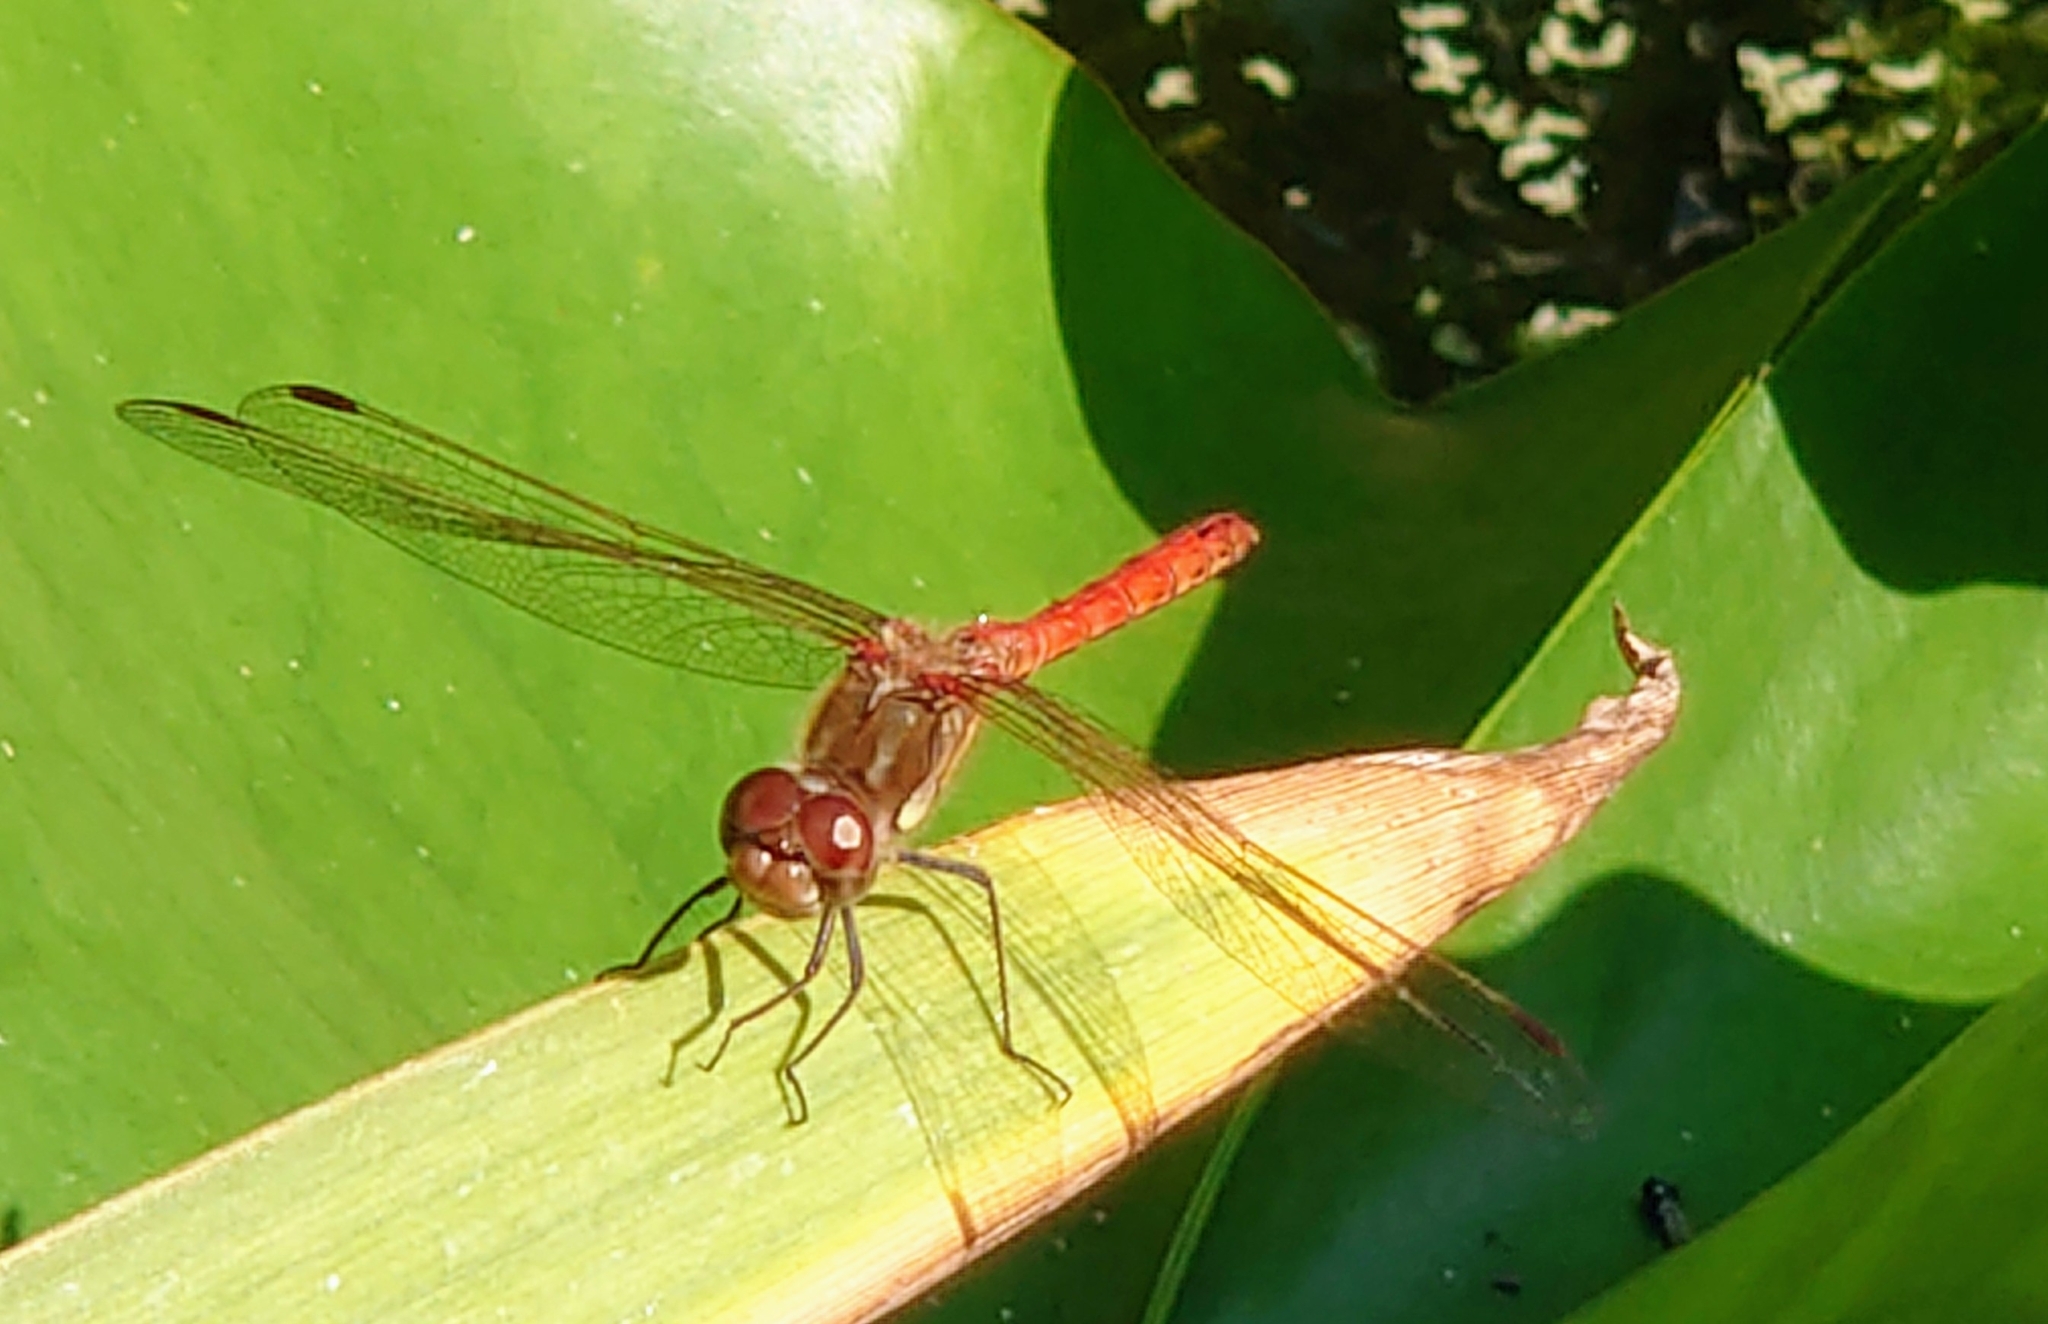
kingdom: Animalia
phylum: Arthropoda
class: Insecta
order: Odonata
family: Libellulidae
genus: Sympetrum
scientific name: Sympetrum striolatum
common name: Common darter
